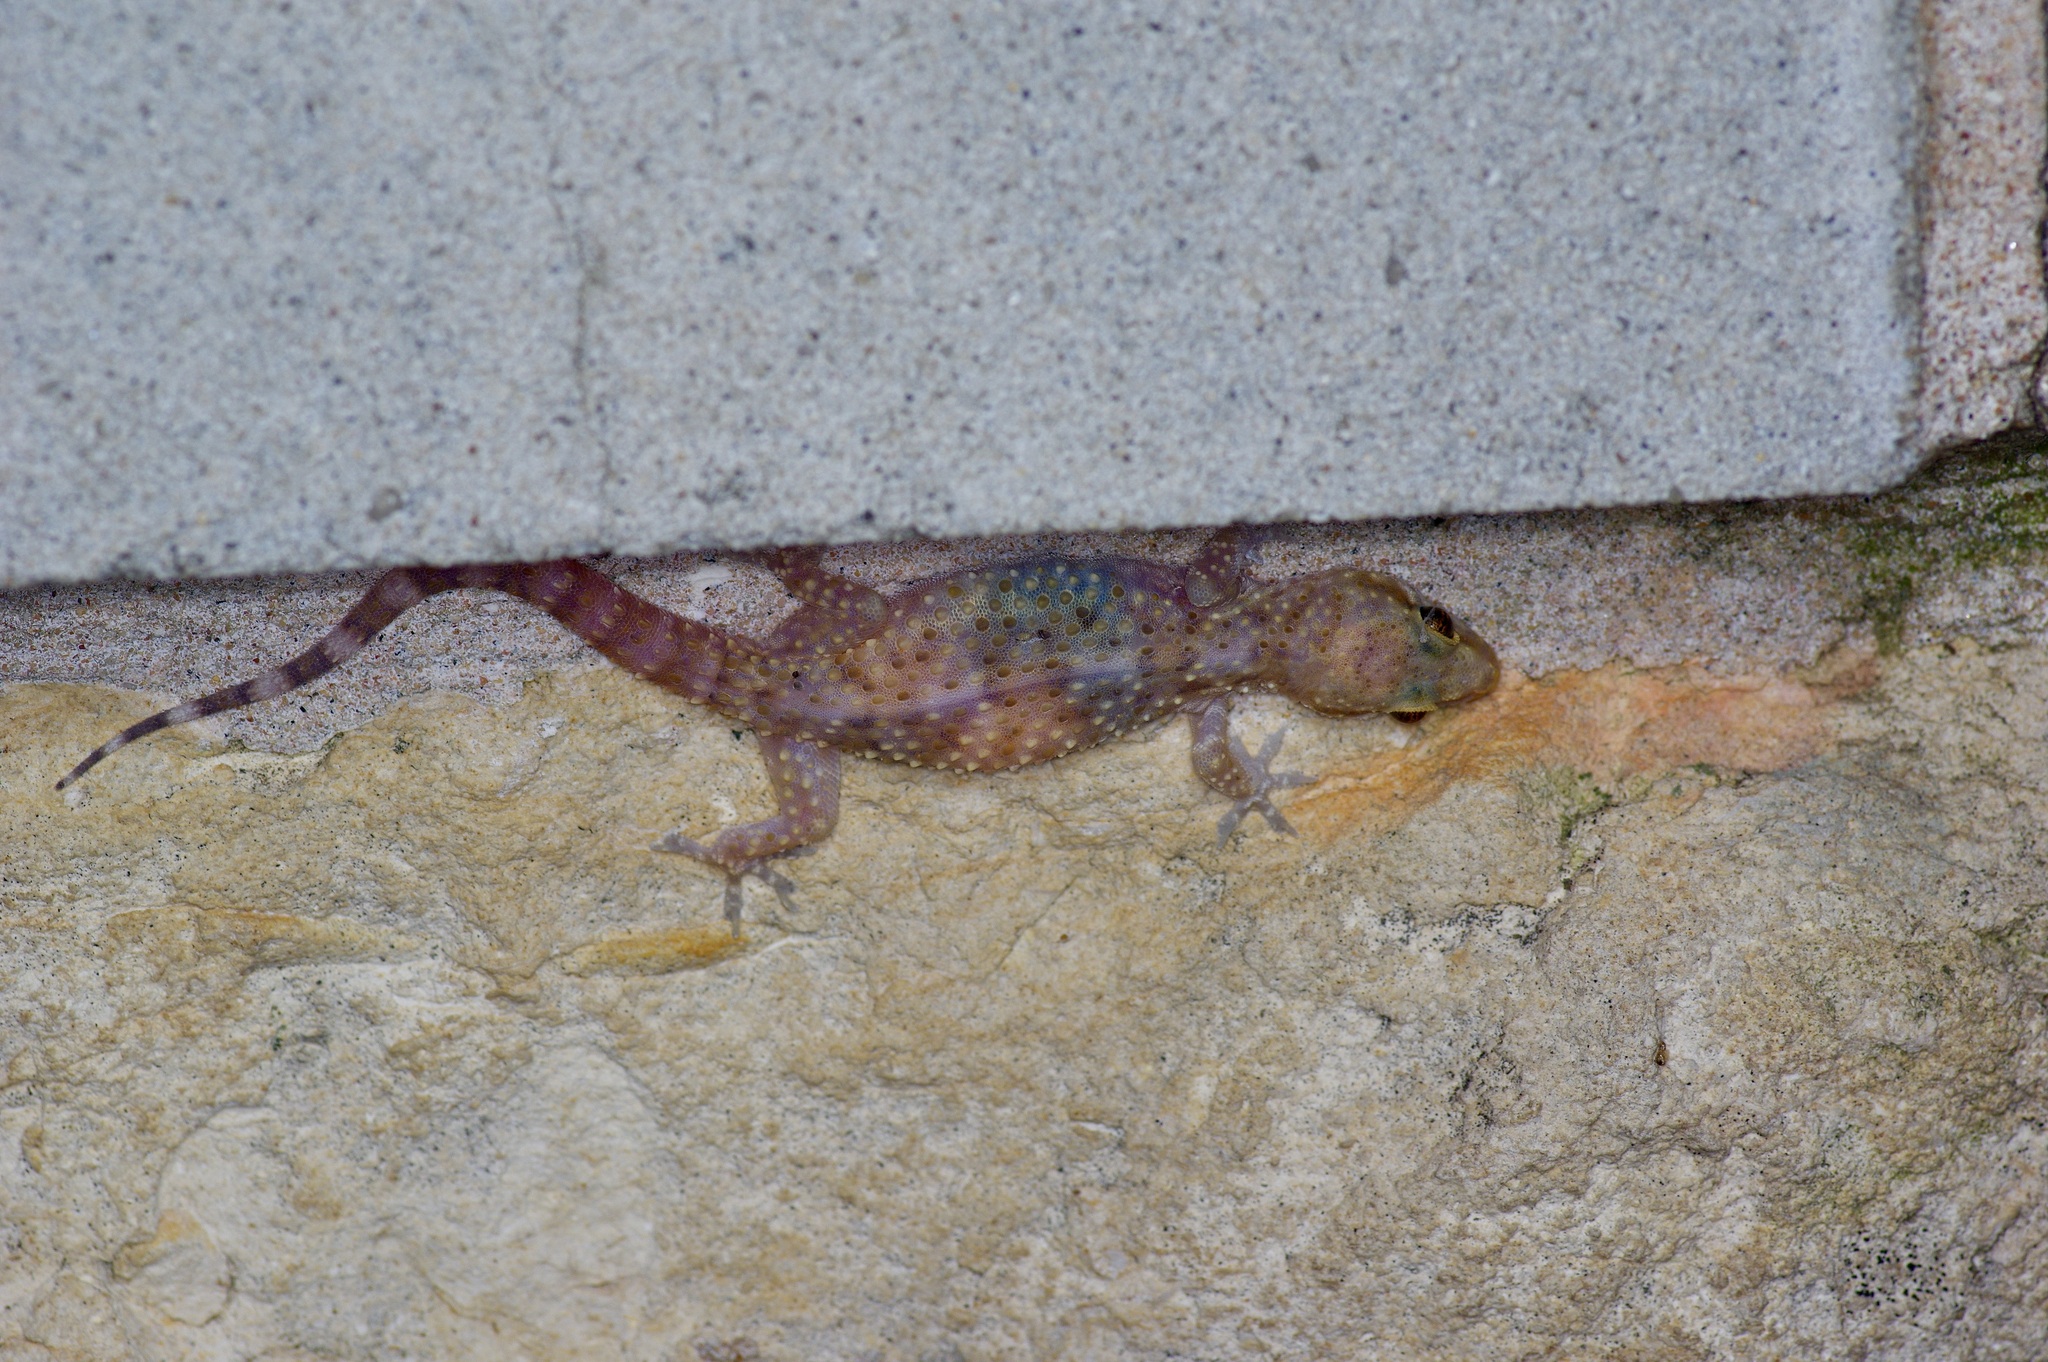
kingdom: Animalia
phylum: Chordata
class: Squamata
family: Gekkonidae
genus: Hemidactylus
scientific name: Hemidactylus turcicus
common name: Turkish gecko
